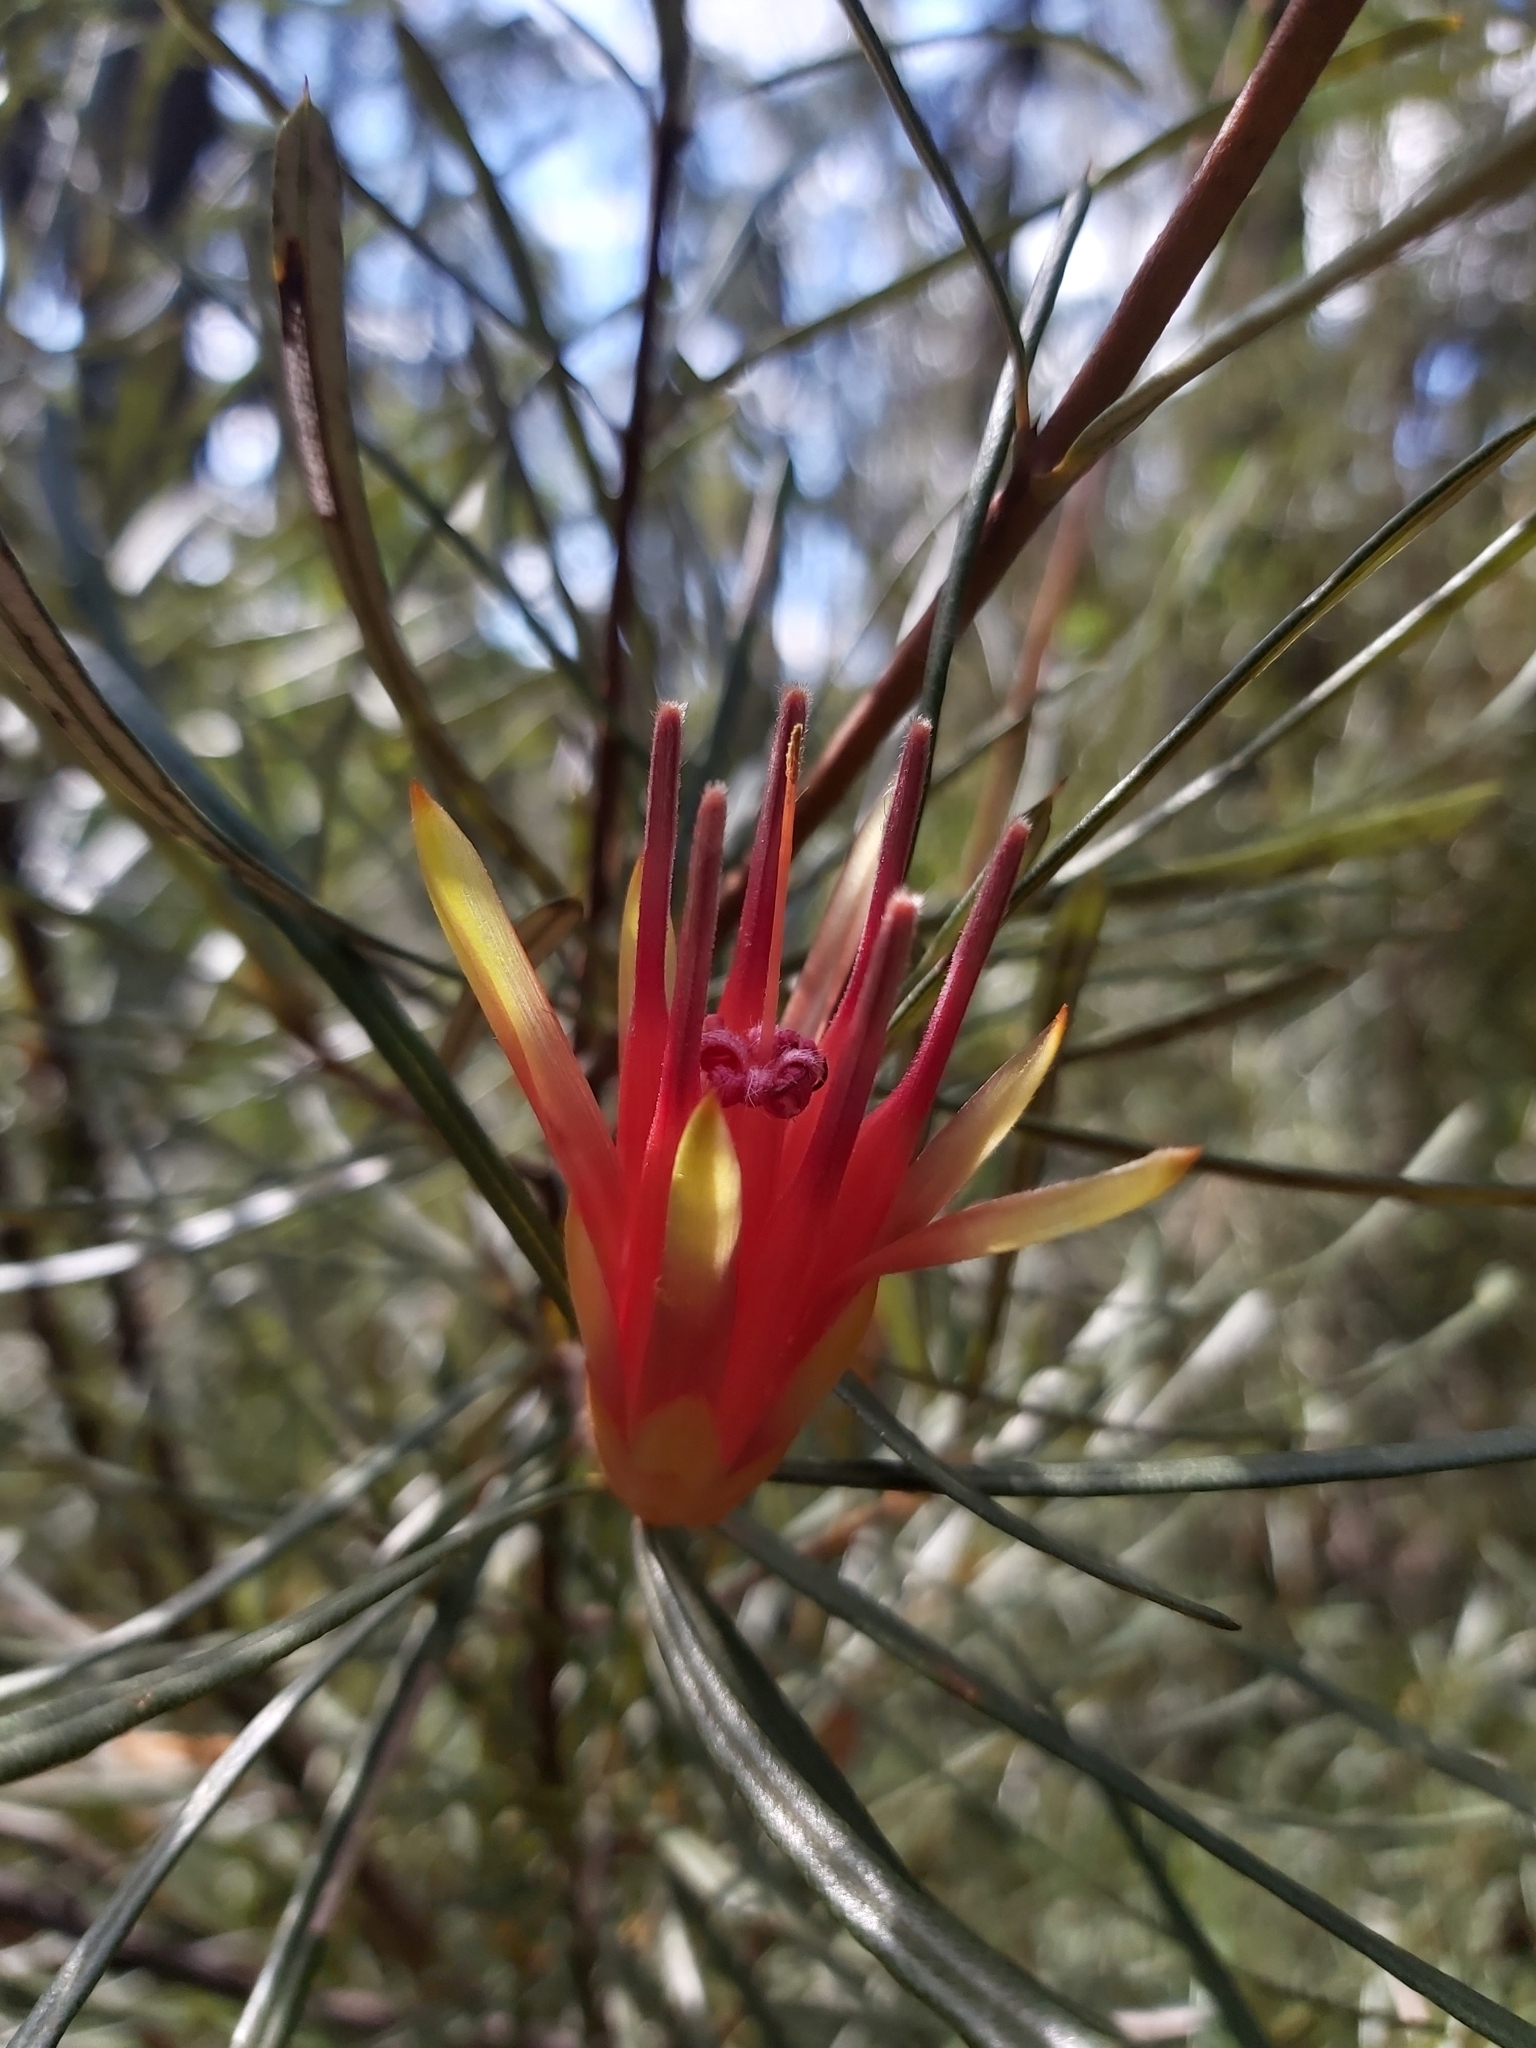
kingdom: Plantae
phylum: Tracheophyta
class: Magnoliopsida
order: Proteales
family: Proteaceae
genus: Lambertia
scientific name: Lambertia formosa
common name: Mountain-devil
